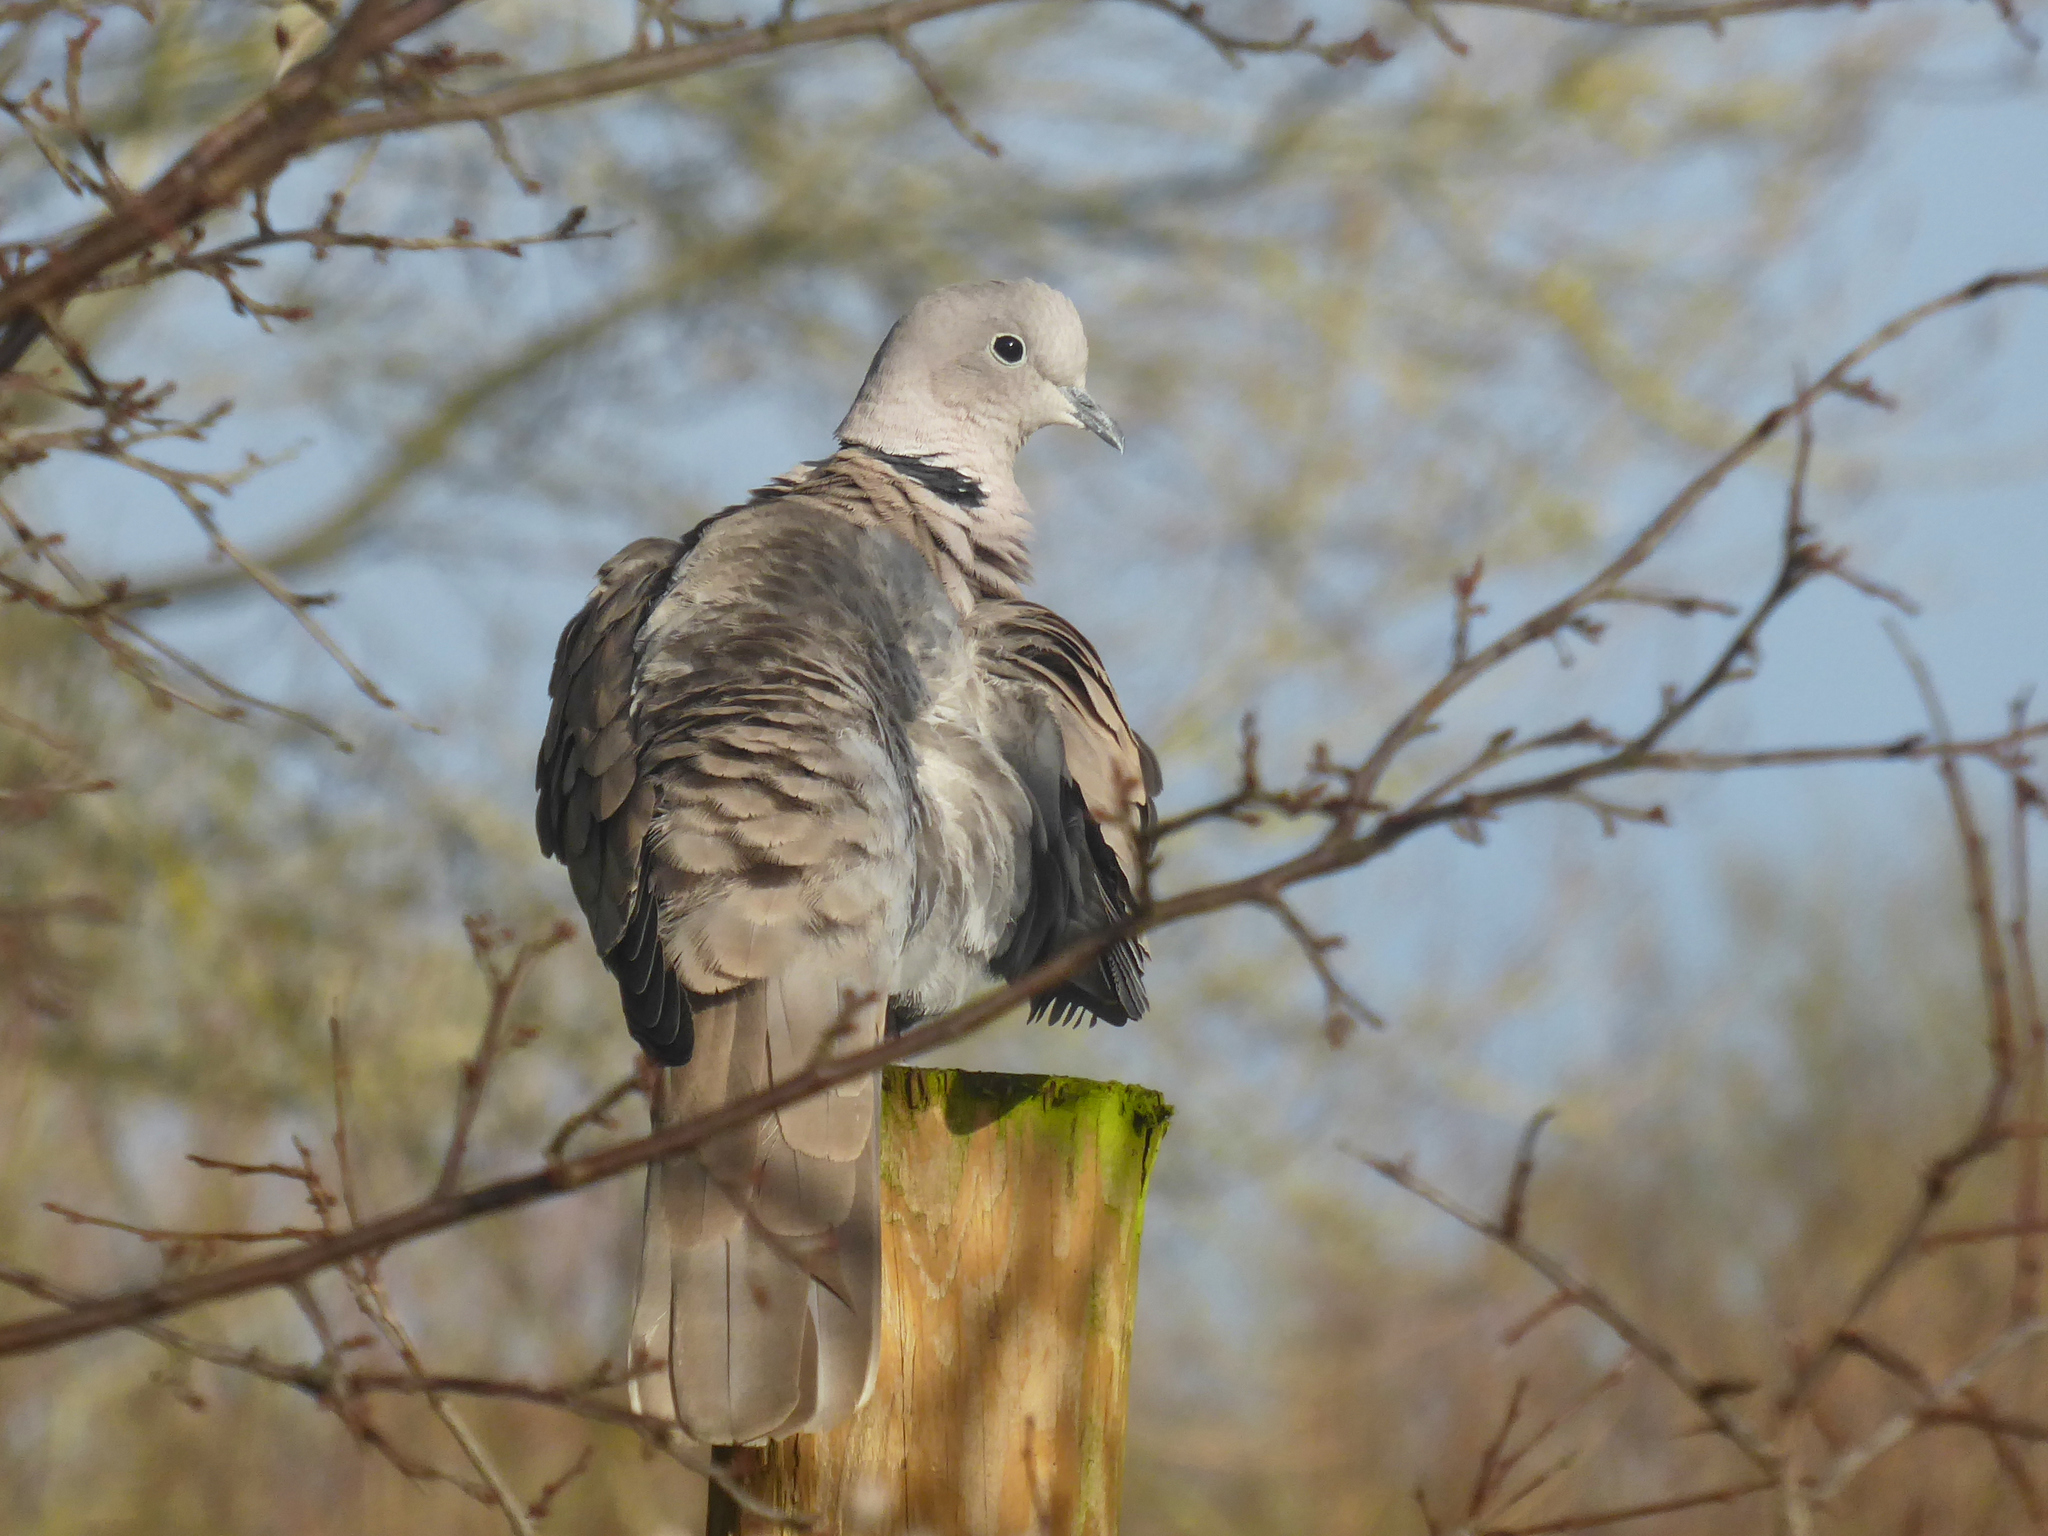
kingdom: Animalia
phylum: Chordata
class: Aves
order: Columbiformes
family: Columbidae
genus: Streptopelia
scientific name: Streptopelia decaocto
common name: Eurasian collared dove
